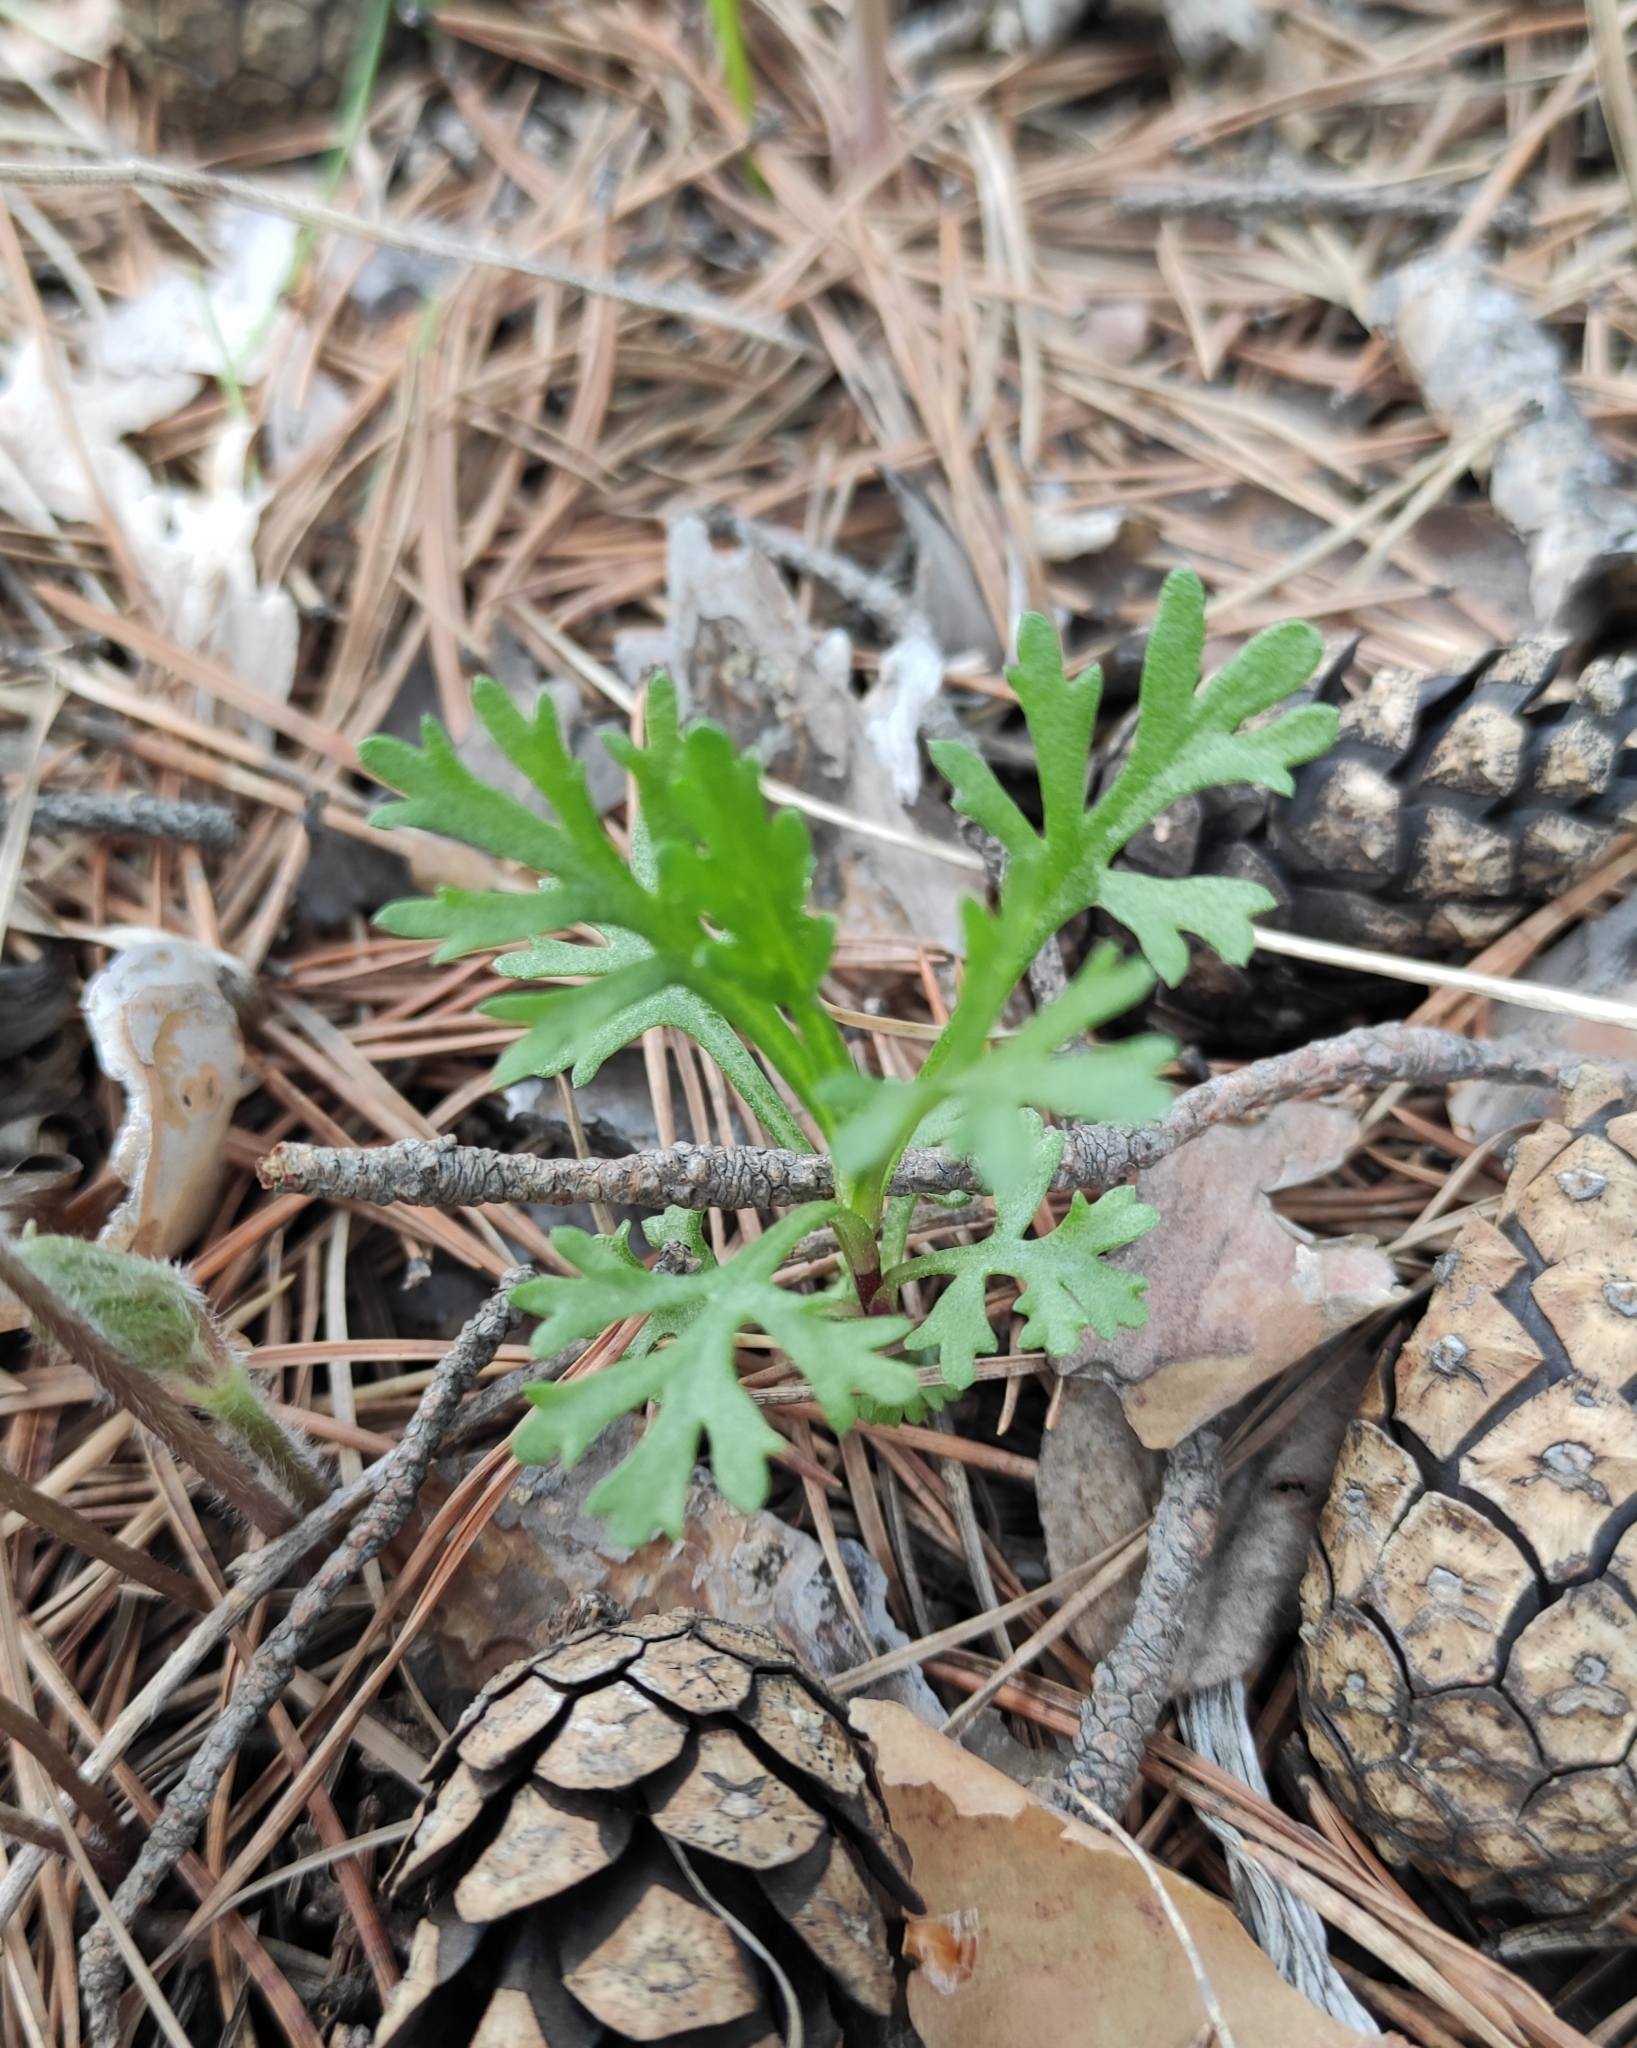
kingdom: Plantae
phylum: Tracheophyta
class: Magnoliopsida
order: Asterales
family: Asteraceae
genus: Chrysanthemum
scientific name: Chrysanthemum zawadzkii
